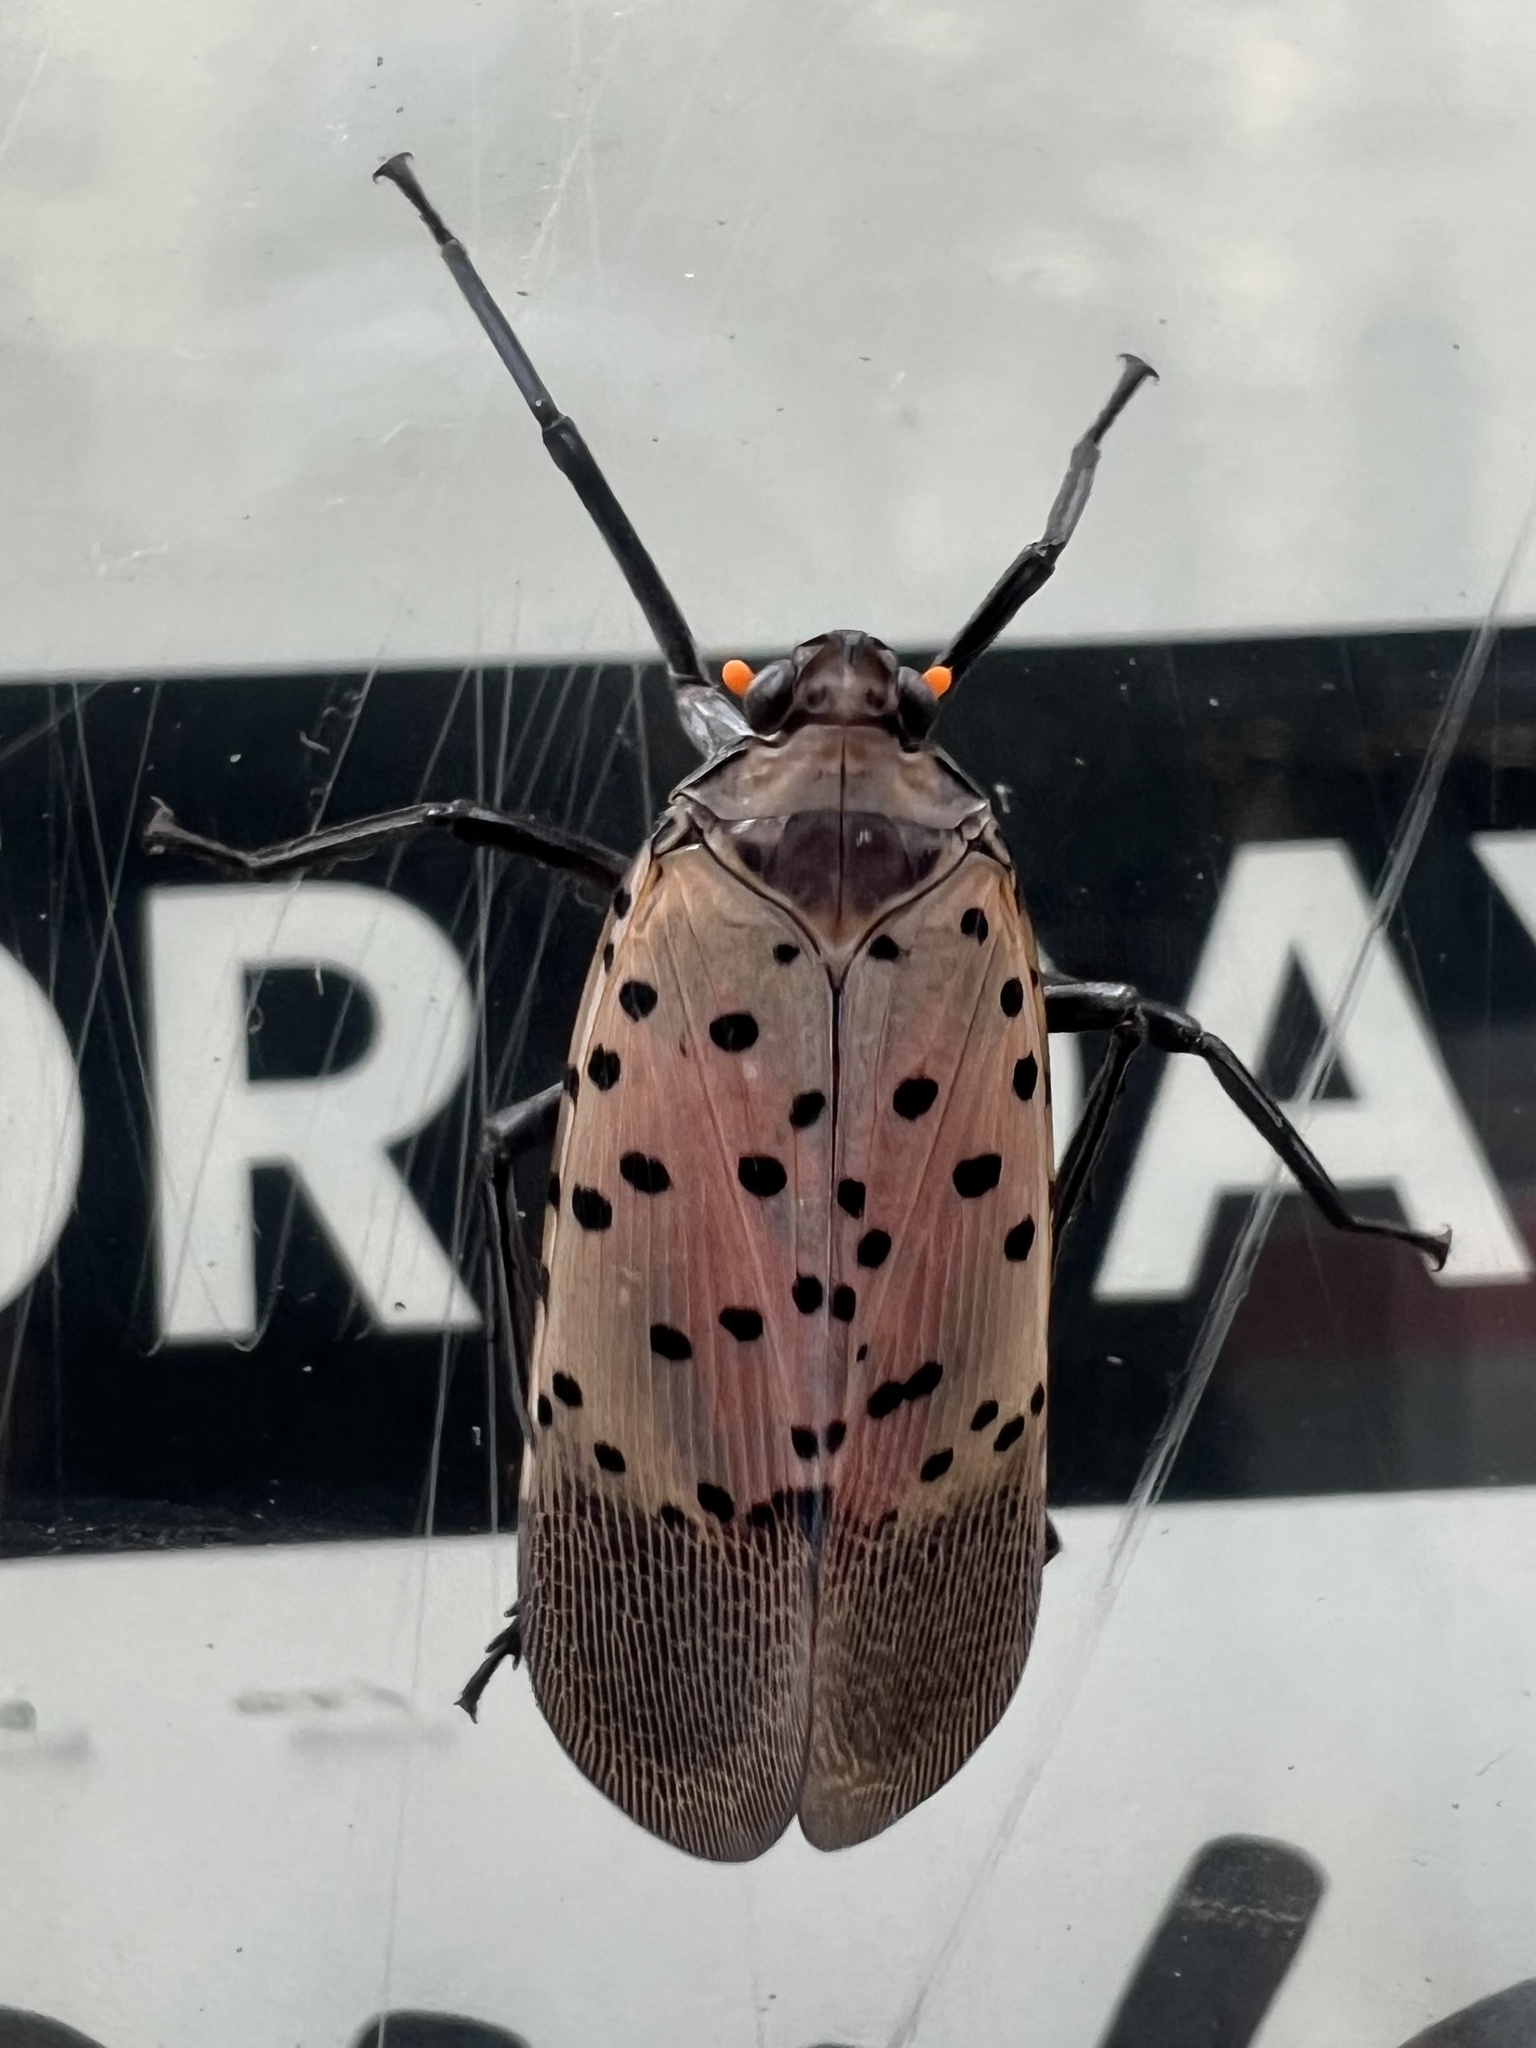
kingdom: Animalia
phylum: Arthropoda
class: Insecta
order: Hemiptera
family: Fulgoridae
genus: Lycorma
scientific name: Lycorma delicatula
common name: Spotted lanternfly
